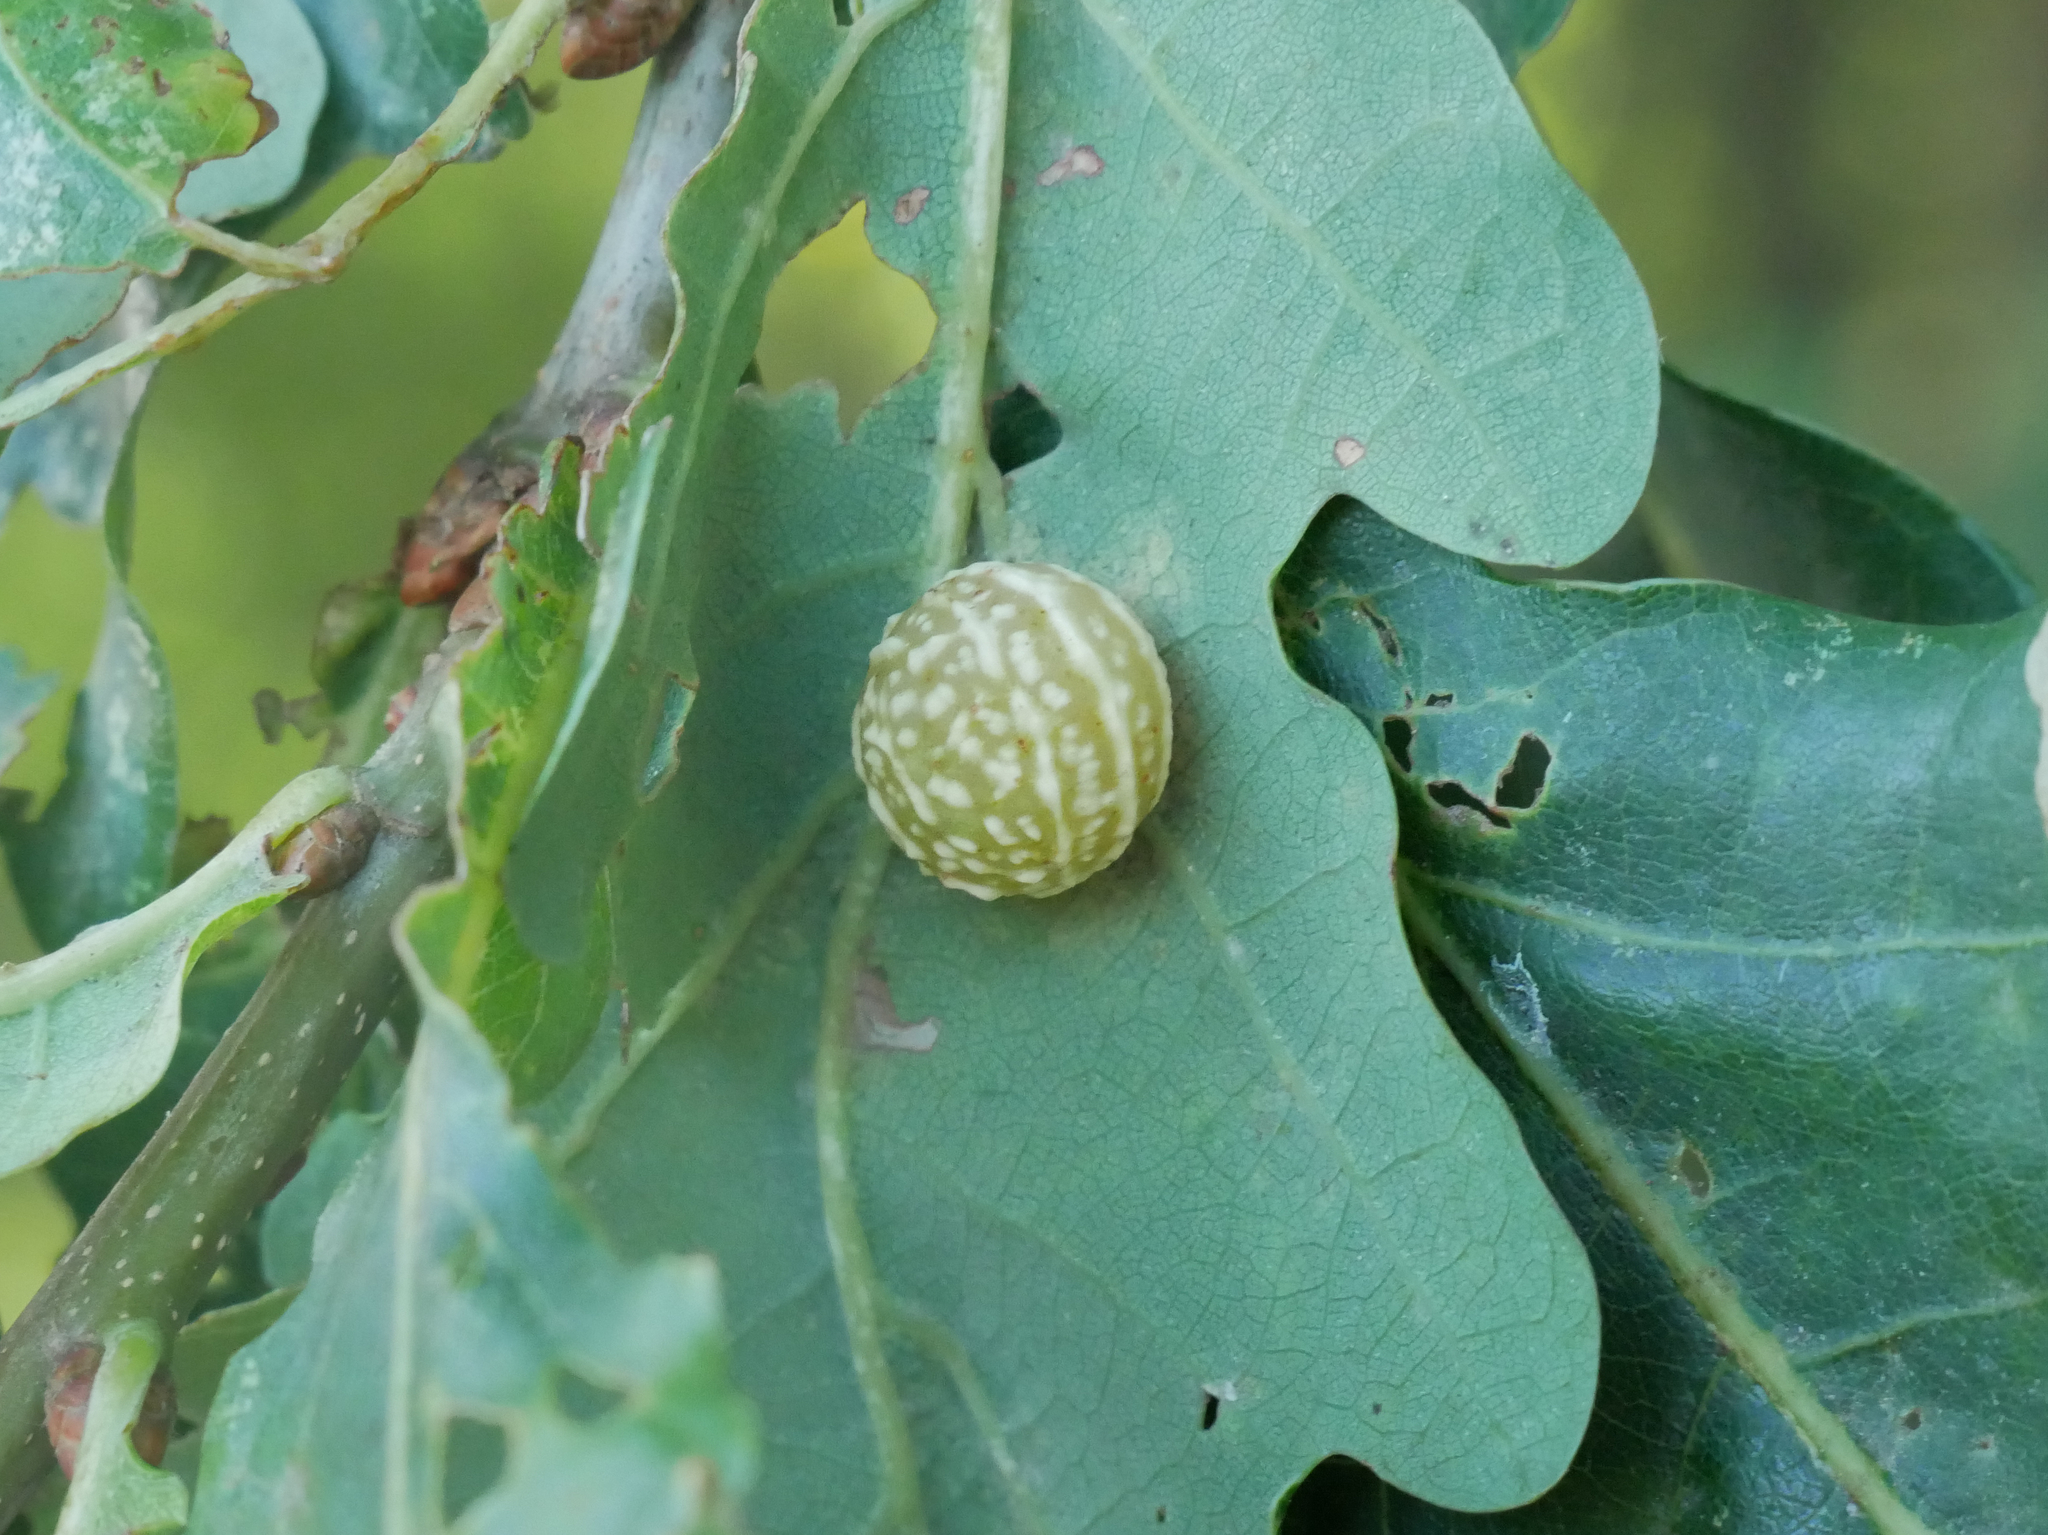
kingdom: Animalia
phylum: Arthropoda
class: Insecta
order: Hymenoptera
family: Cynipidae
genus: Cynips
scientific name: Cynips longiventris
